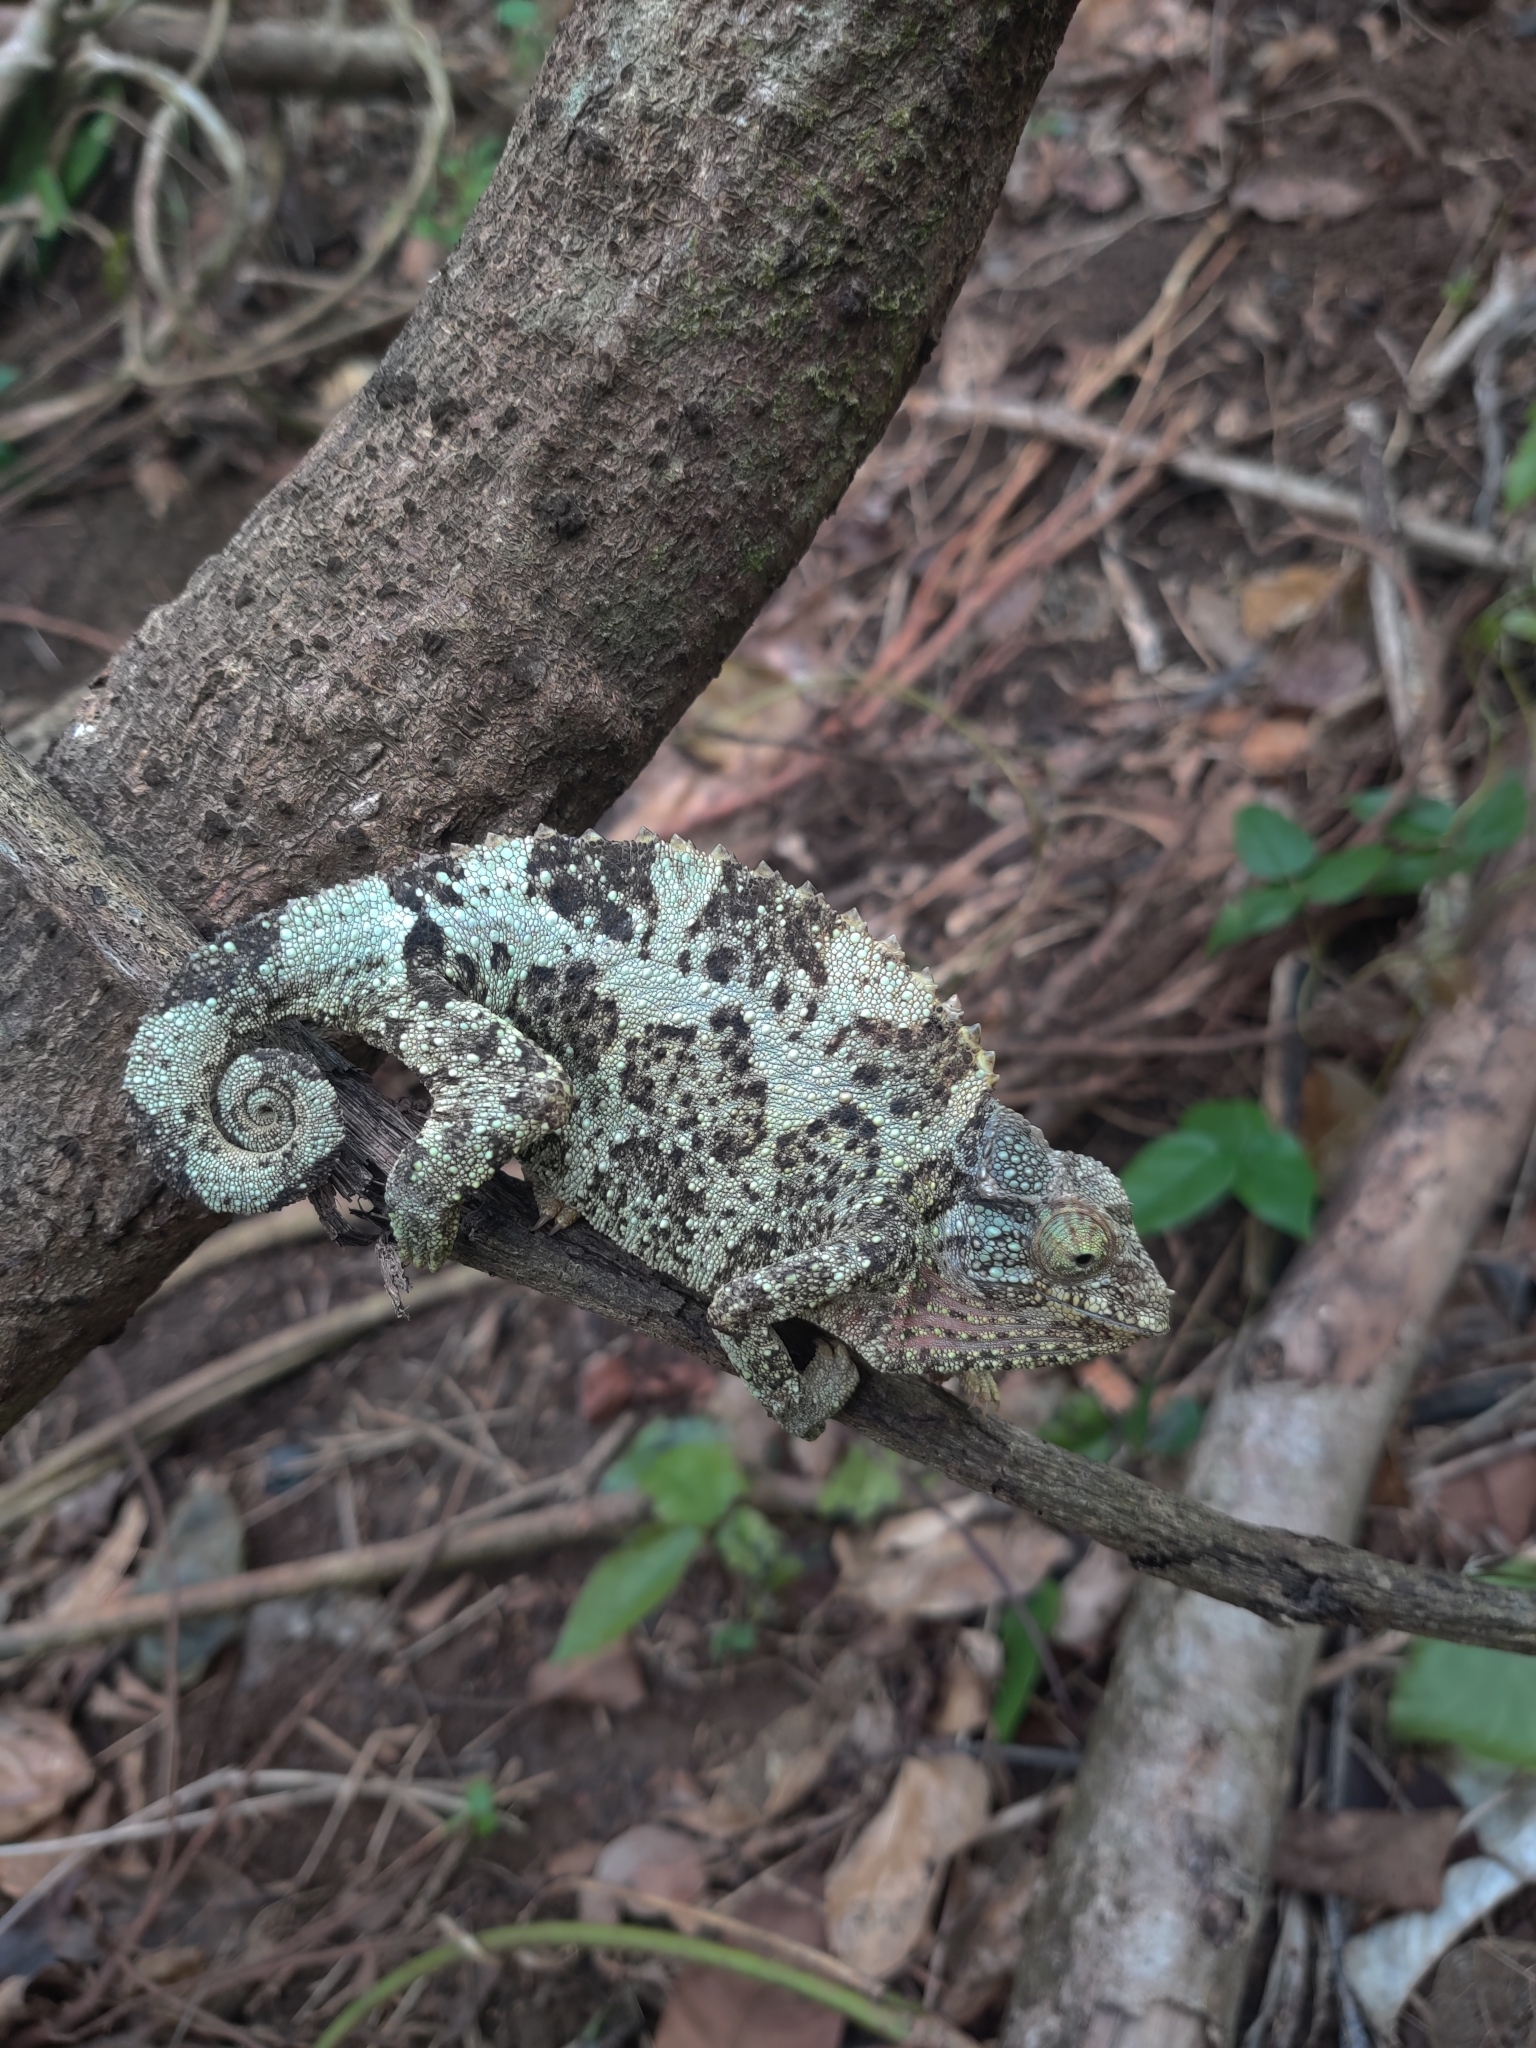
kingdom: Animalia
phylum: Chordata
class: Squamata
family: Chamaeleonidae
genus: Trioceros
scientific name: Trioceros jacksonii
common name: Jackson's chameleon
